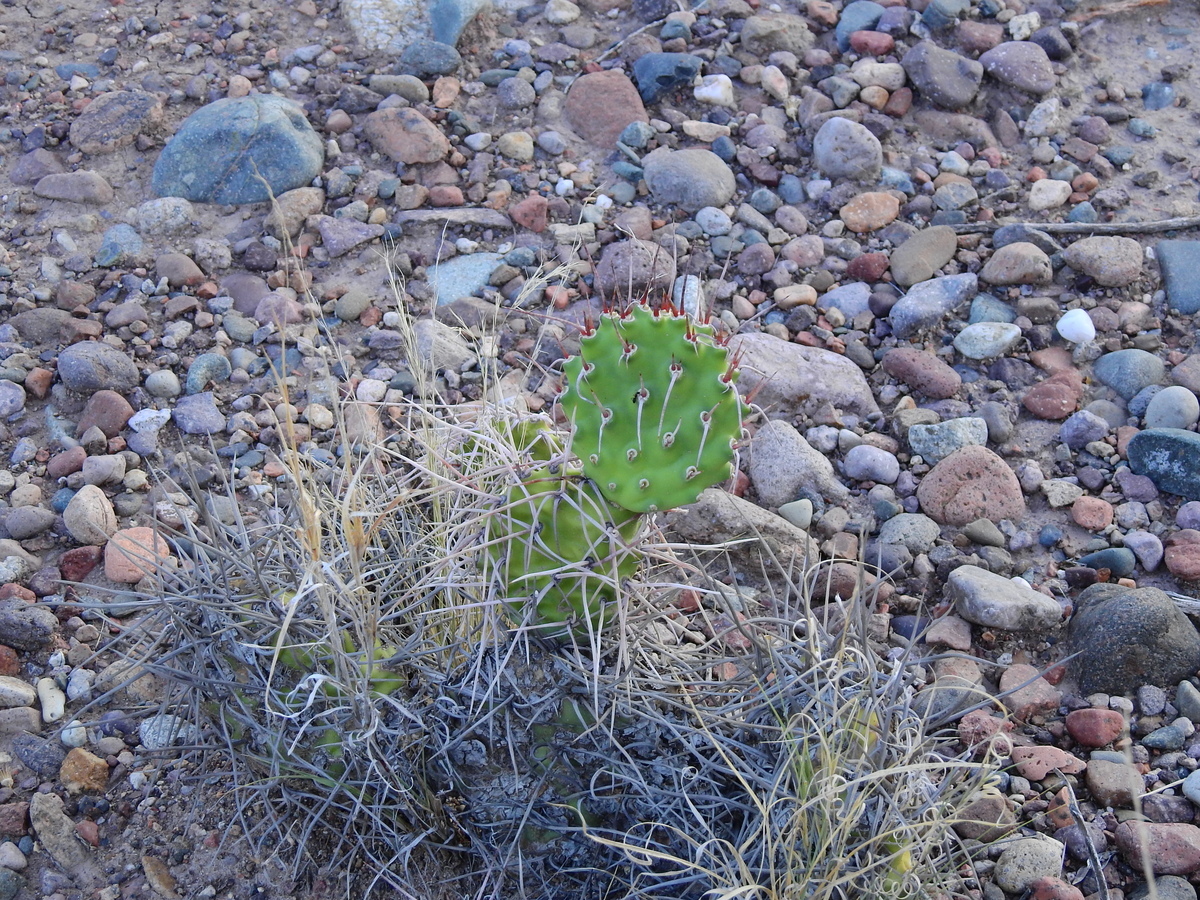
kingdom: Plantae
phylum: Tracheophyta
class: Magnoliopsida
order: Caryophyllales
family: Cactaceae
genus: Opuntia
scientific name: Opuntia sulphurea
